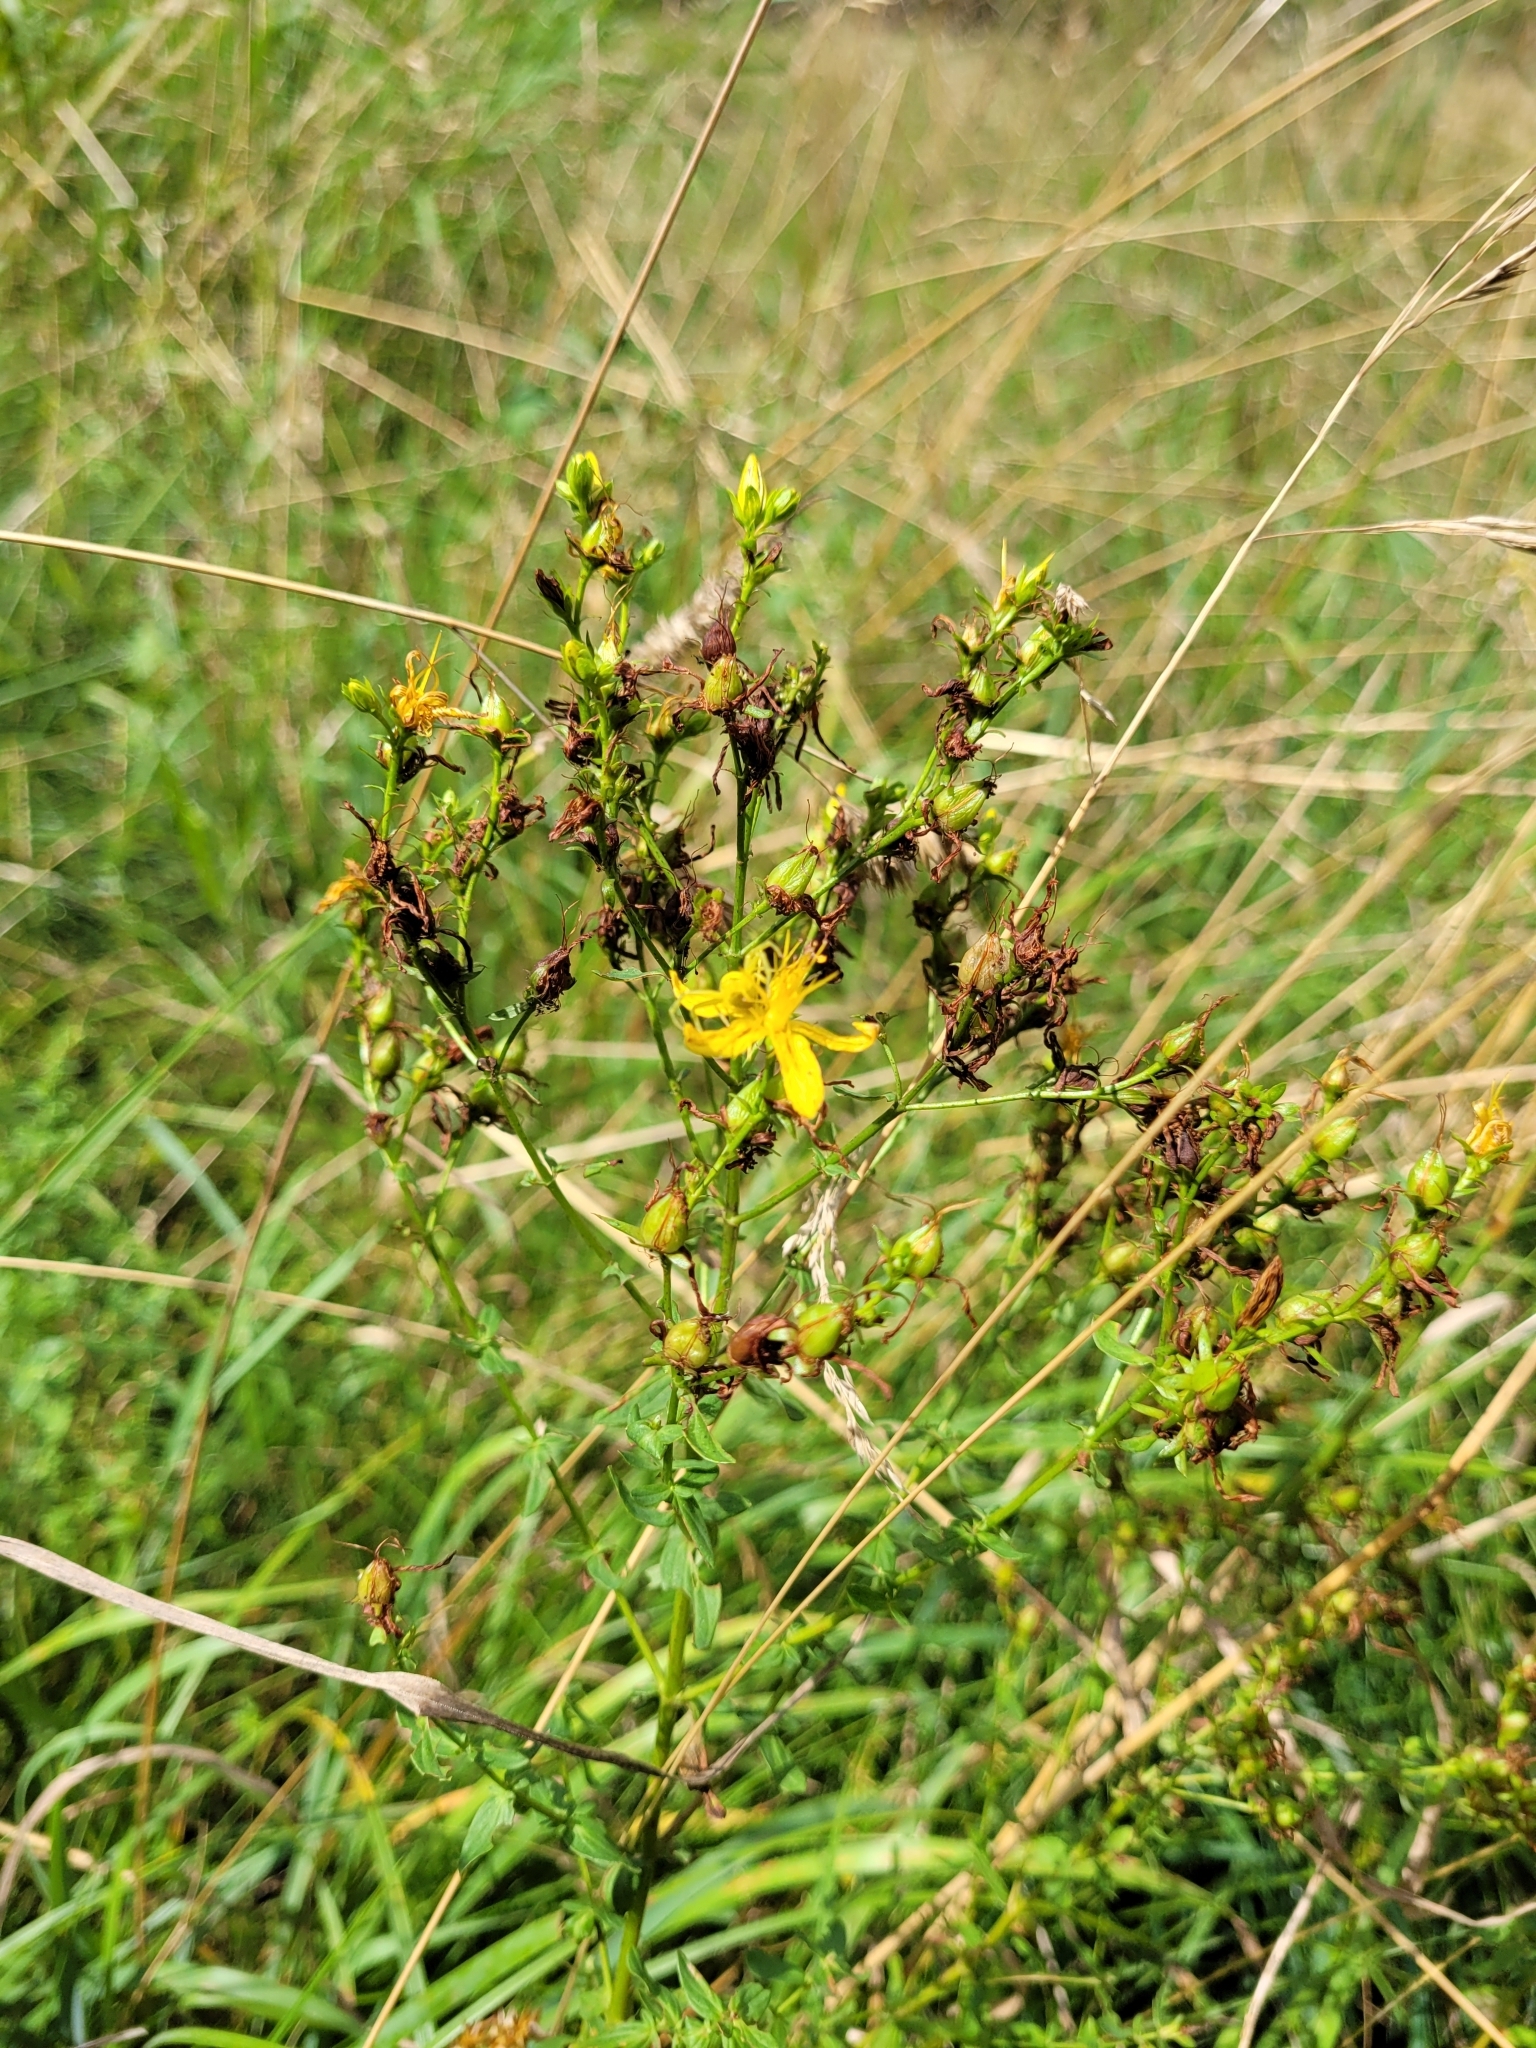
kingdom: Plantae
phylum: Tracheophyta
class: Magnoliopsida
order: Malpighiales
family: Hypericaceae
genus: Hypericum
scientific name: Hypericum perforatum
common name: Common st. johnswort
